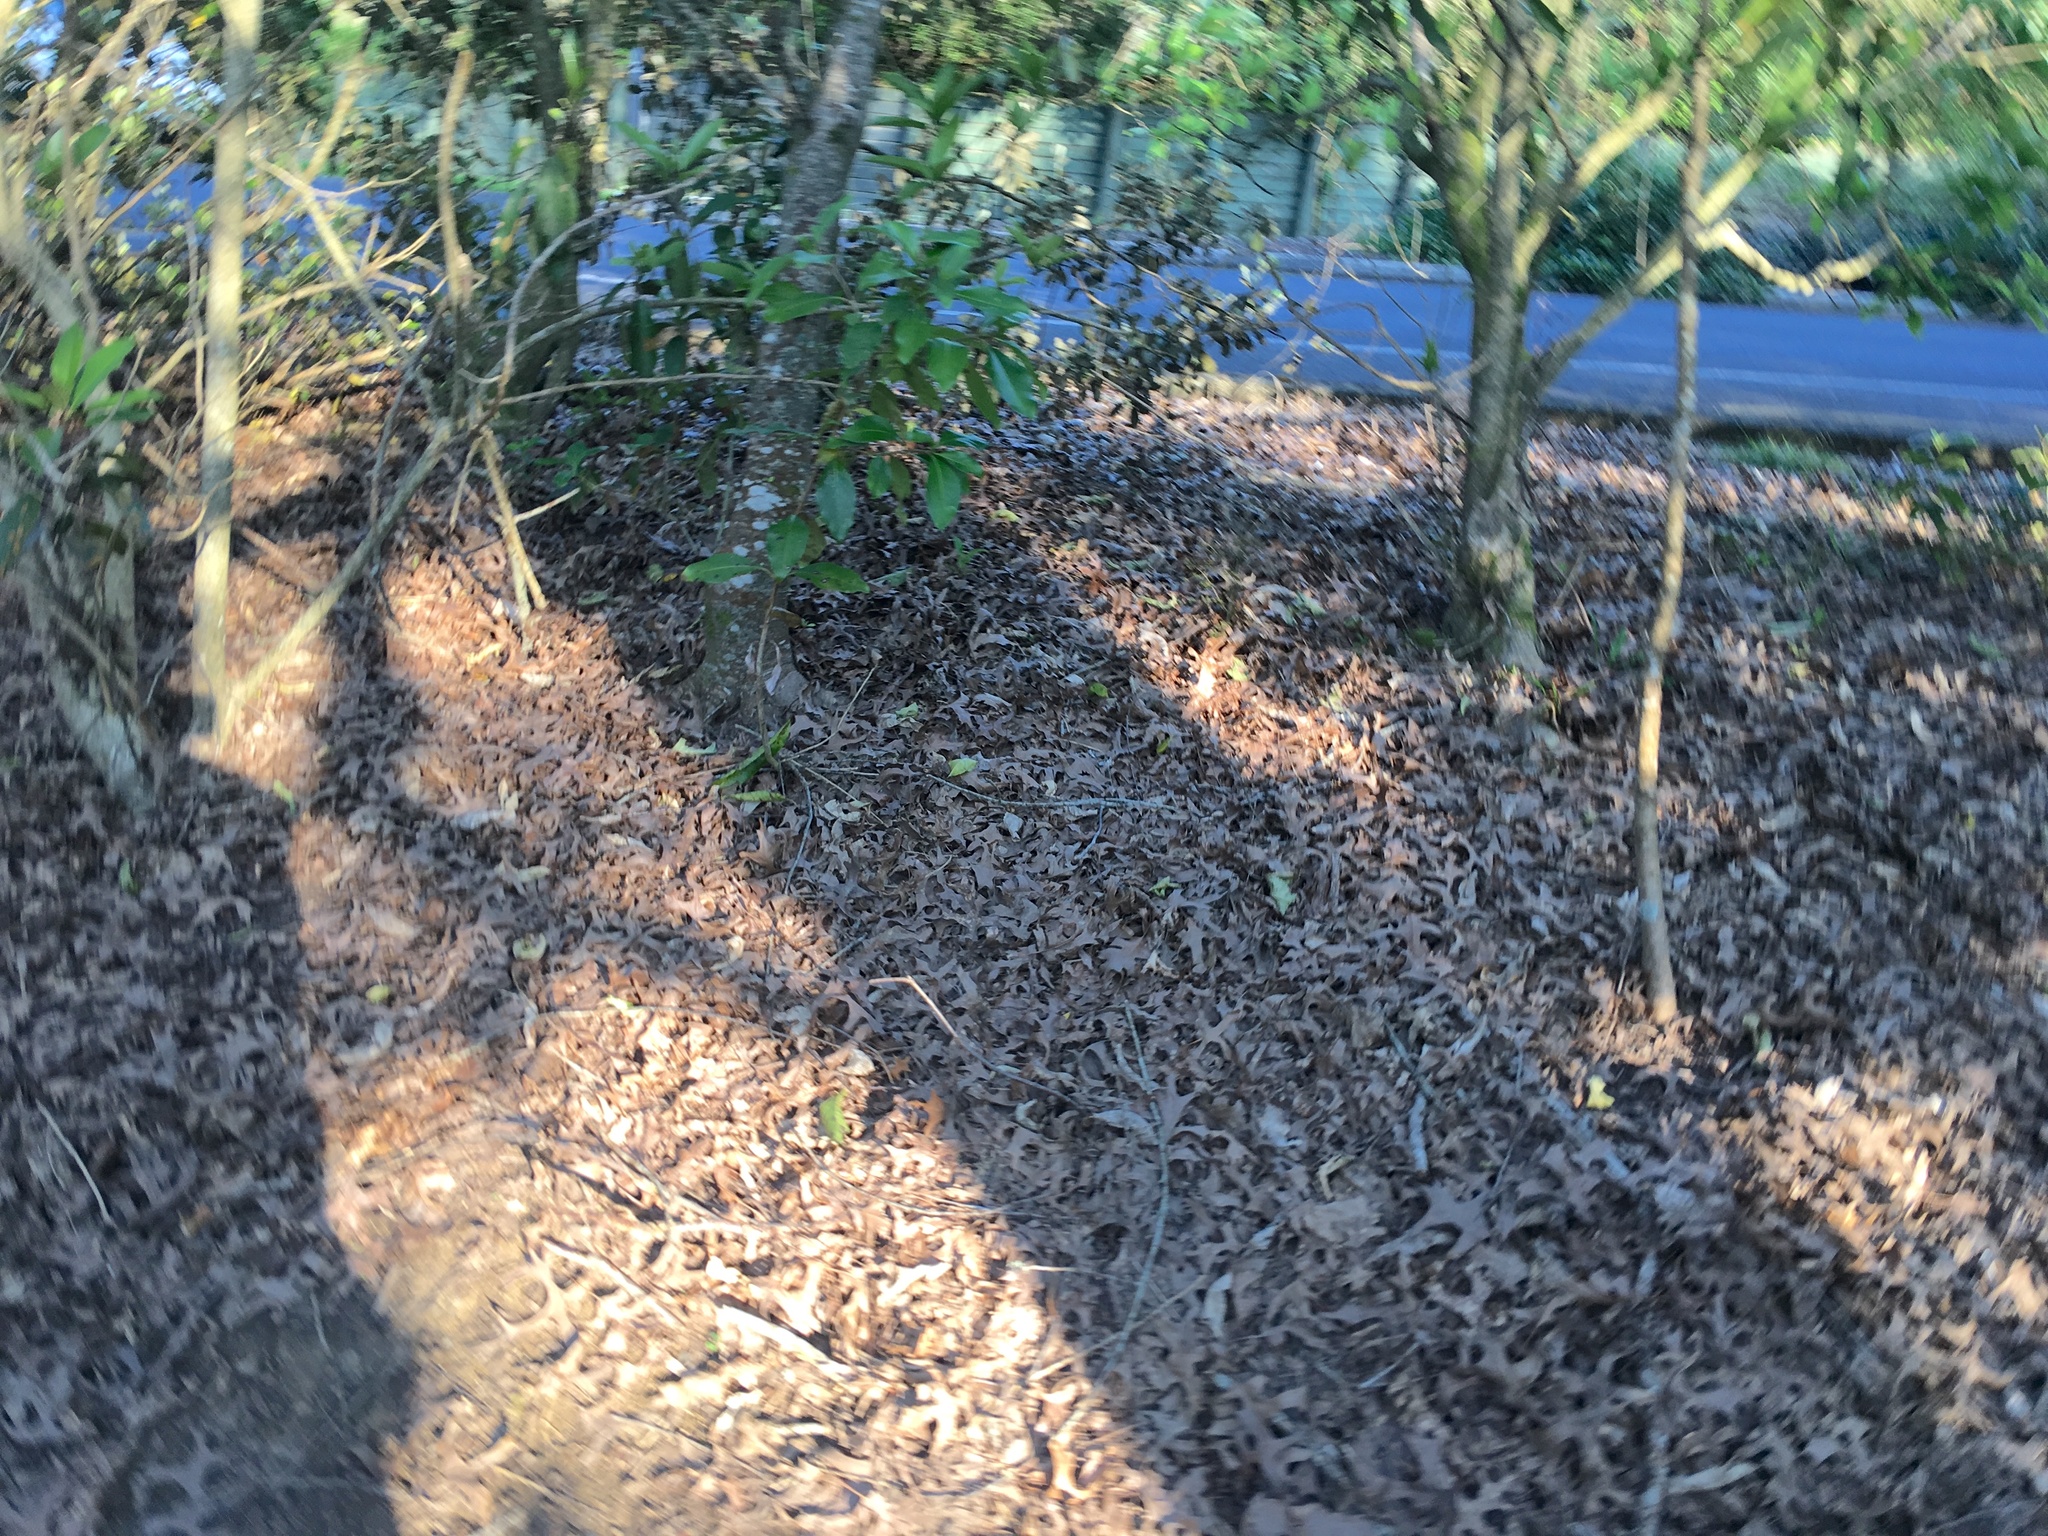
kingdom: Plantae
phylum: Tracheophyta
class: Magnoliopsida
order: Gentianales
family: Rubiaceae
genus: Coprosma
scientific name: Coprosma robusta
